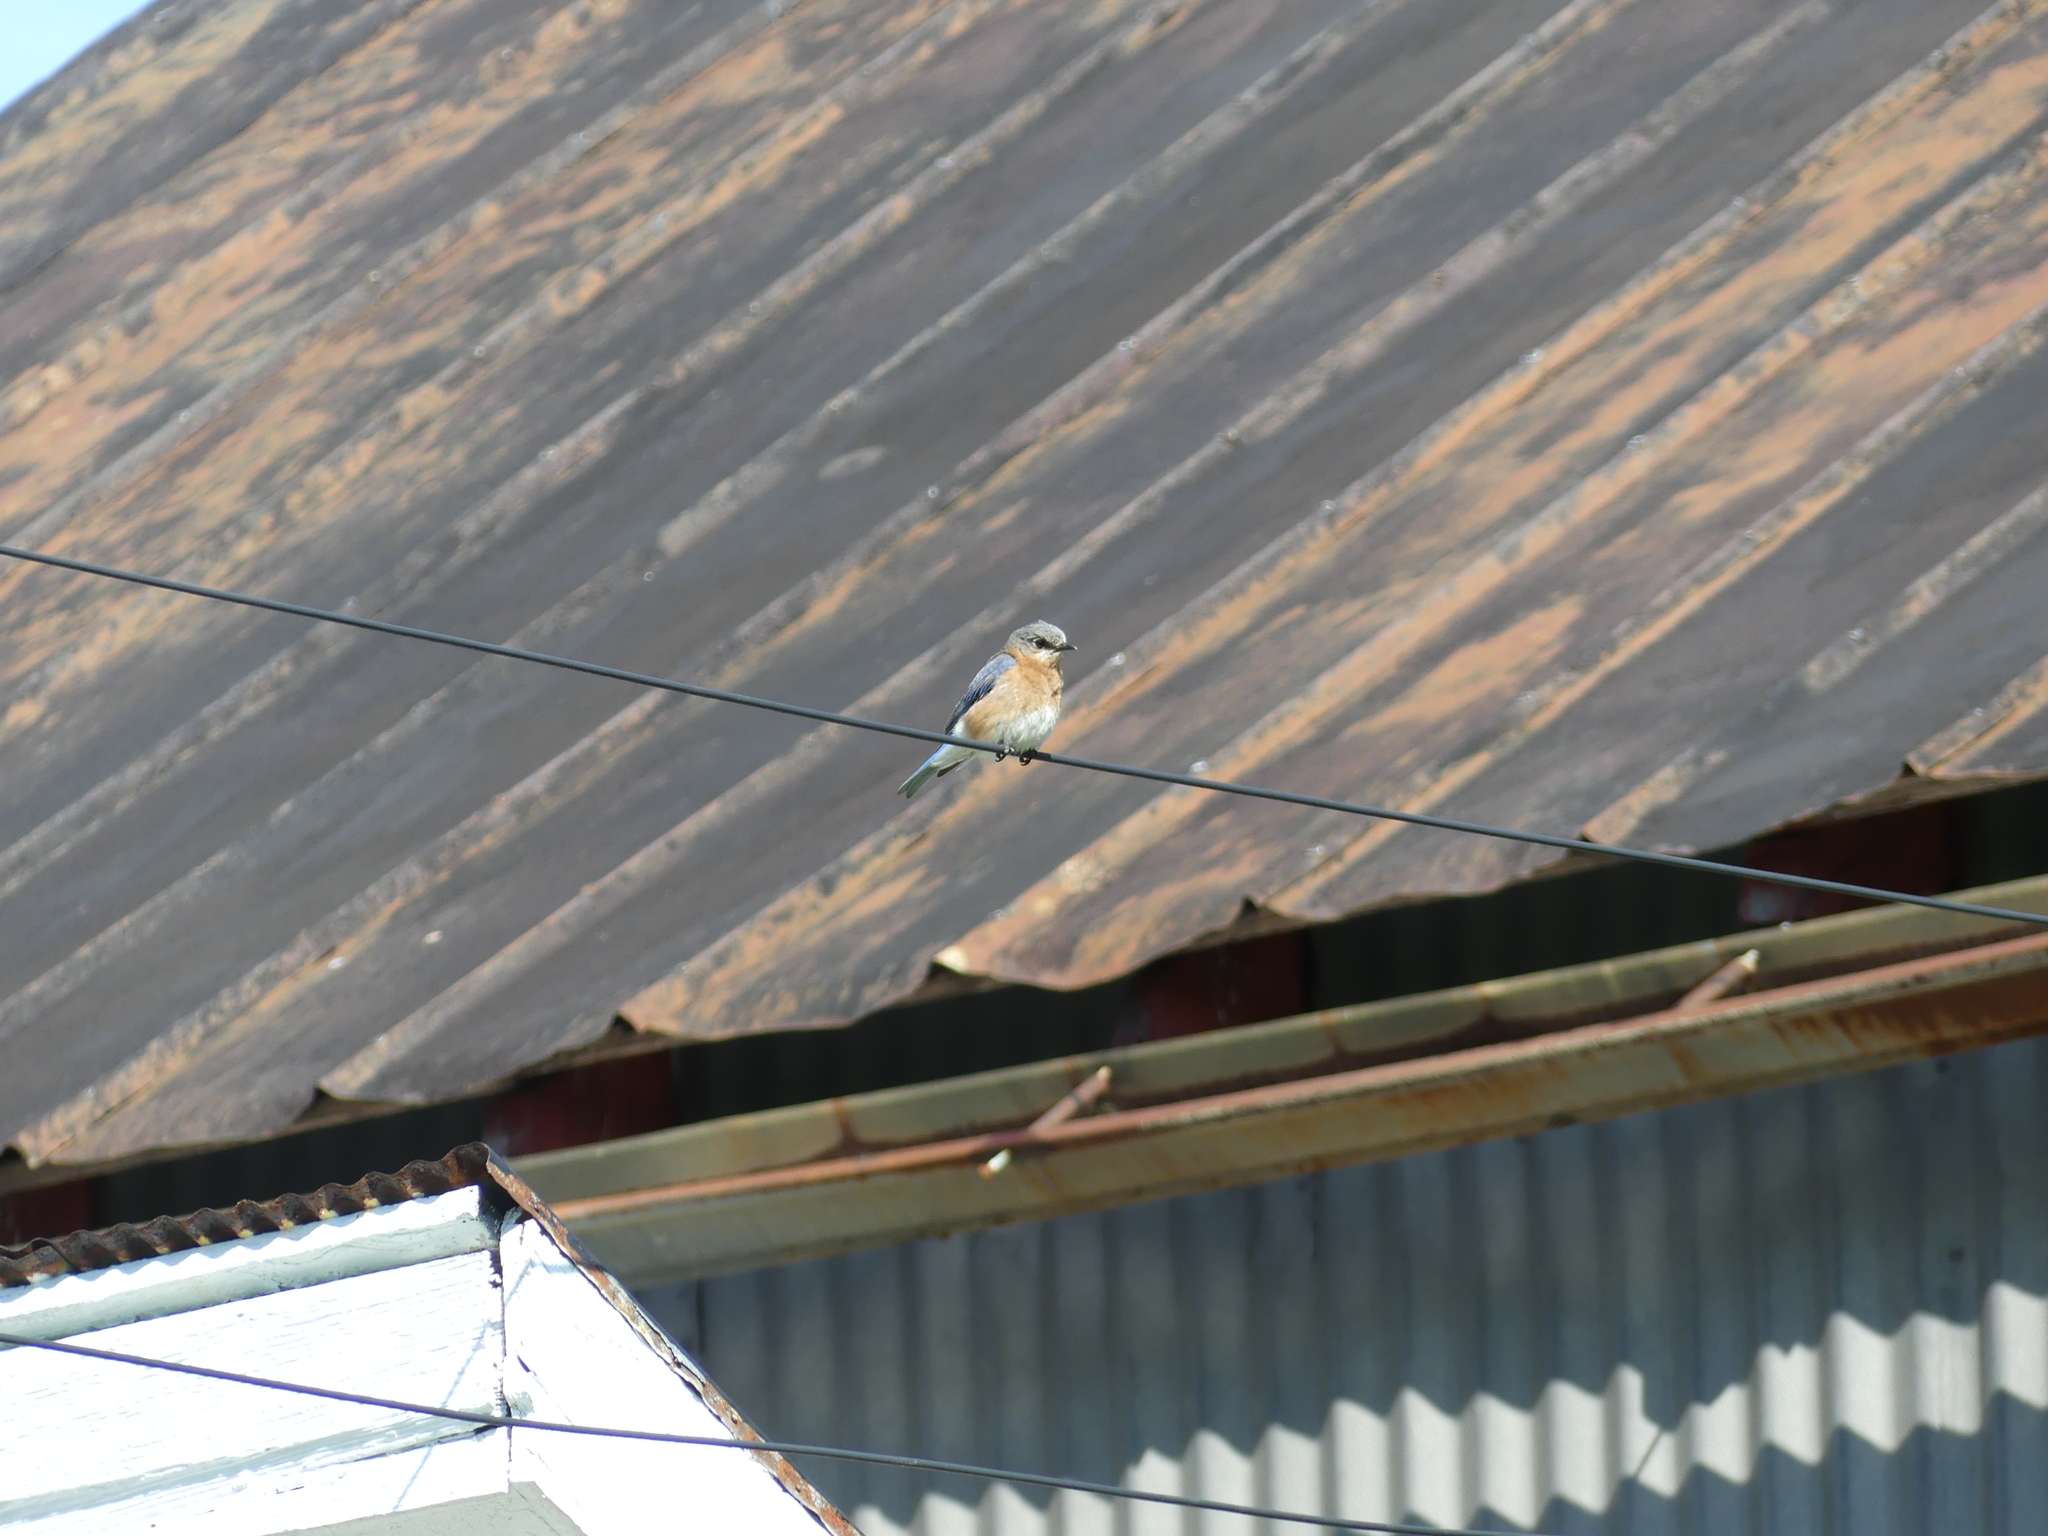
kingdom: Animalia
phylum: Chordata
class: Aves
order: Passeriformes
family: Turdidae
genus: Sialia
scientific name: Sialia sialis
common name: Eastern bluebird
